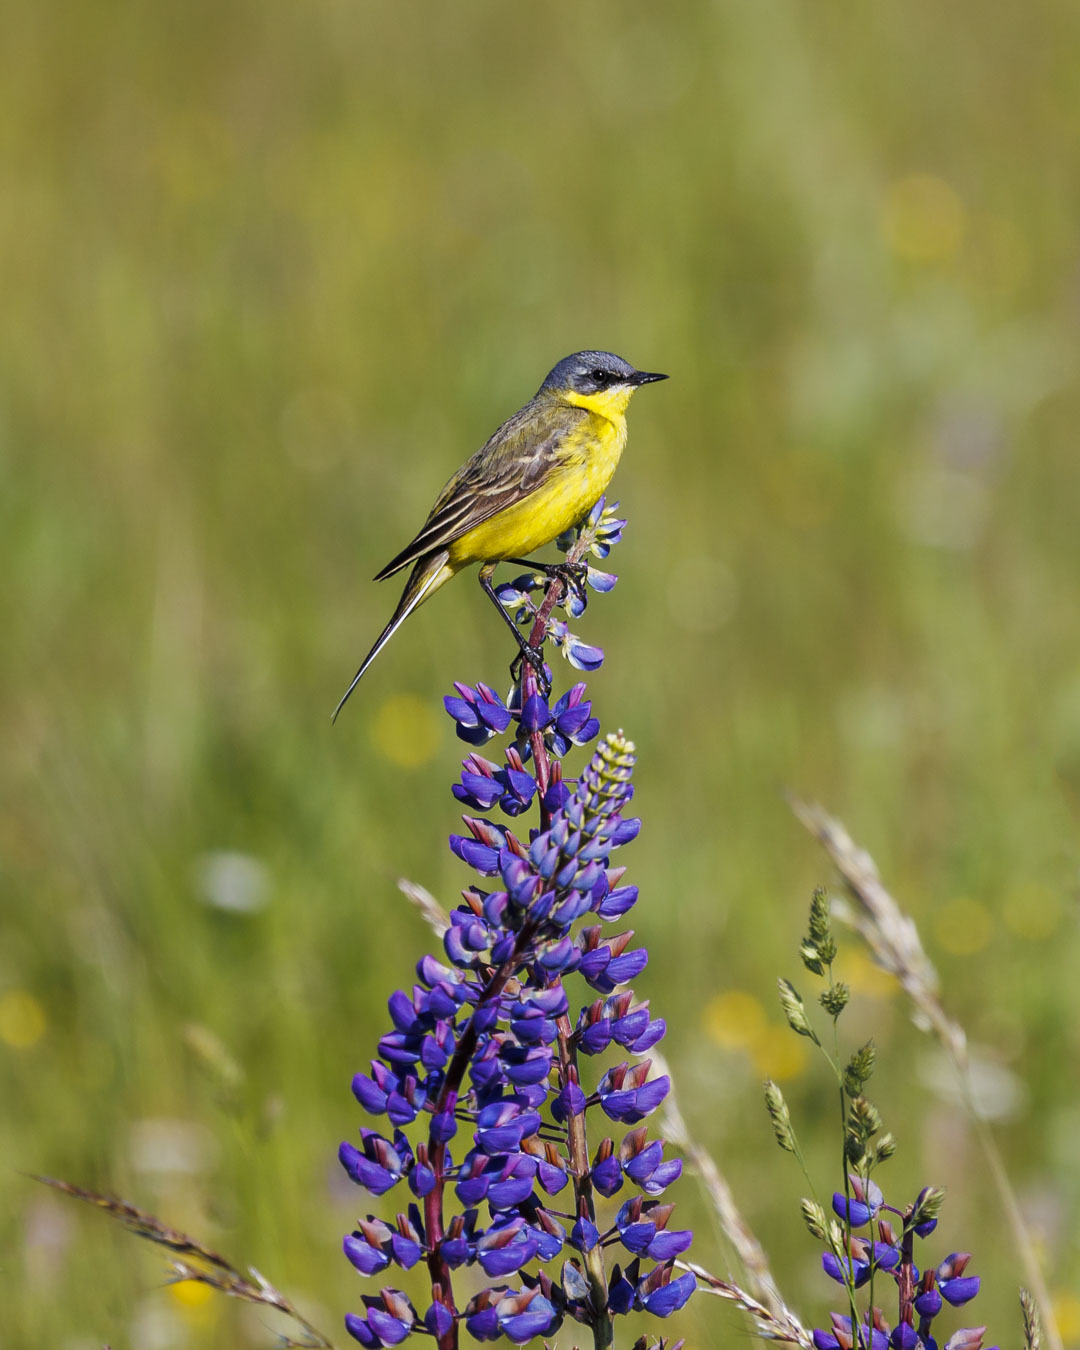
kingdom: Animalia
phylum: Chordata
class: Aves
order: Passeriformes
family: Motacillidae
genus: Motacilla
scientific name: Motacilla flava
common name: Western yellow wagtail
